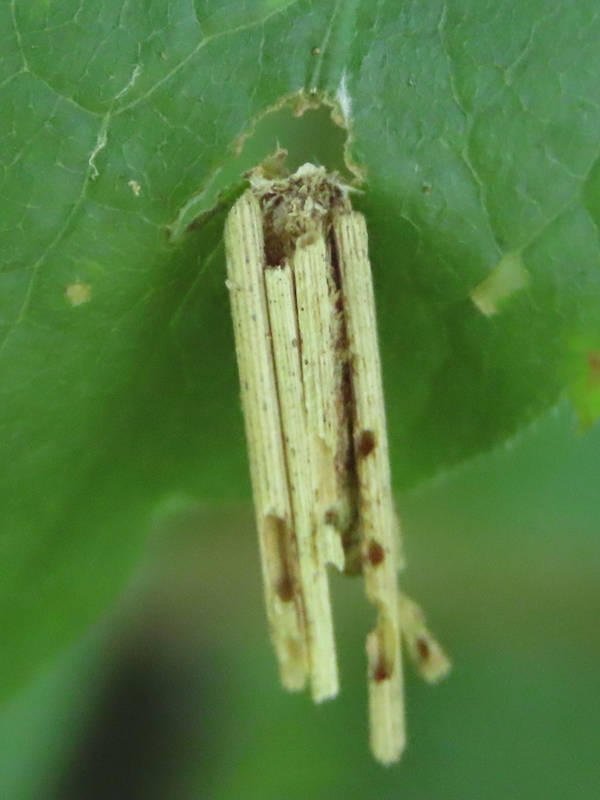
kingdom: Animalia
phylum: Arthropoda
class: Insecta
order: Lepidoptera
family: Psychidae
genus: Psyche
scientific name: Psyche casta
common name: Common sweep
